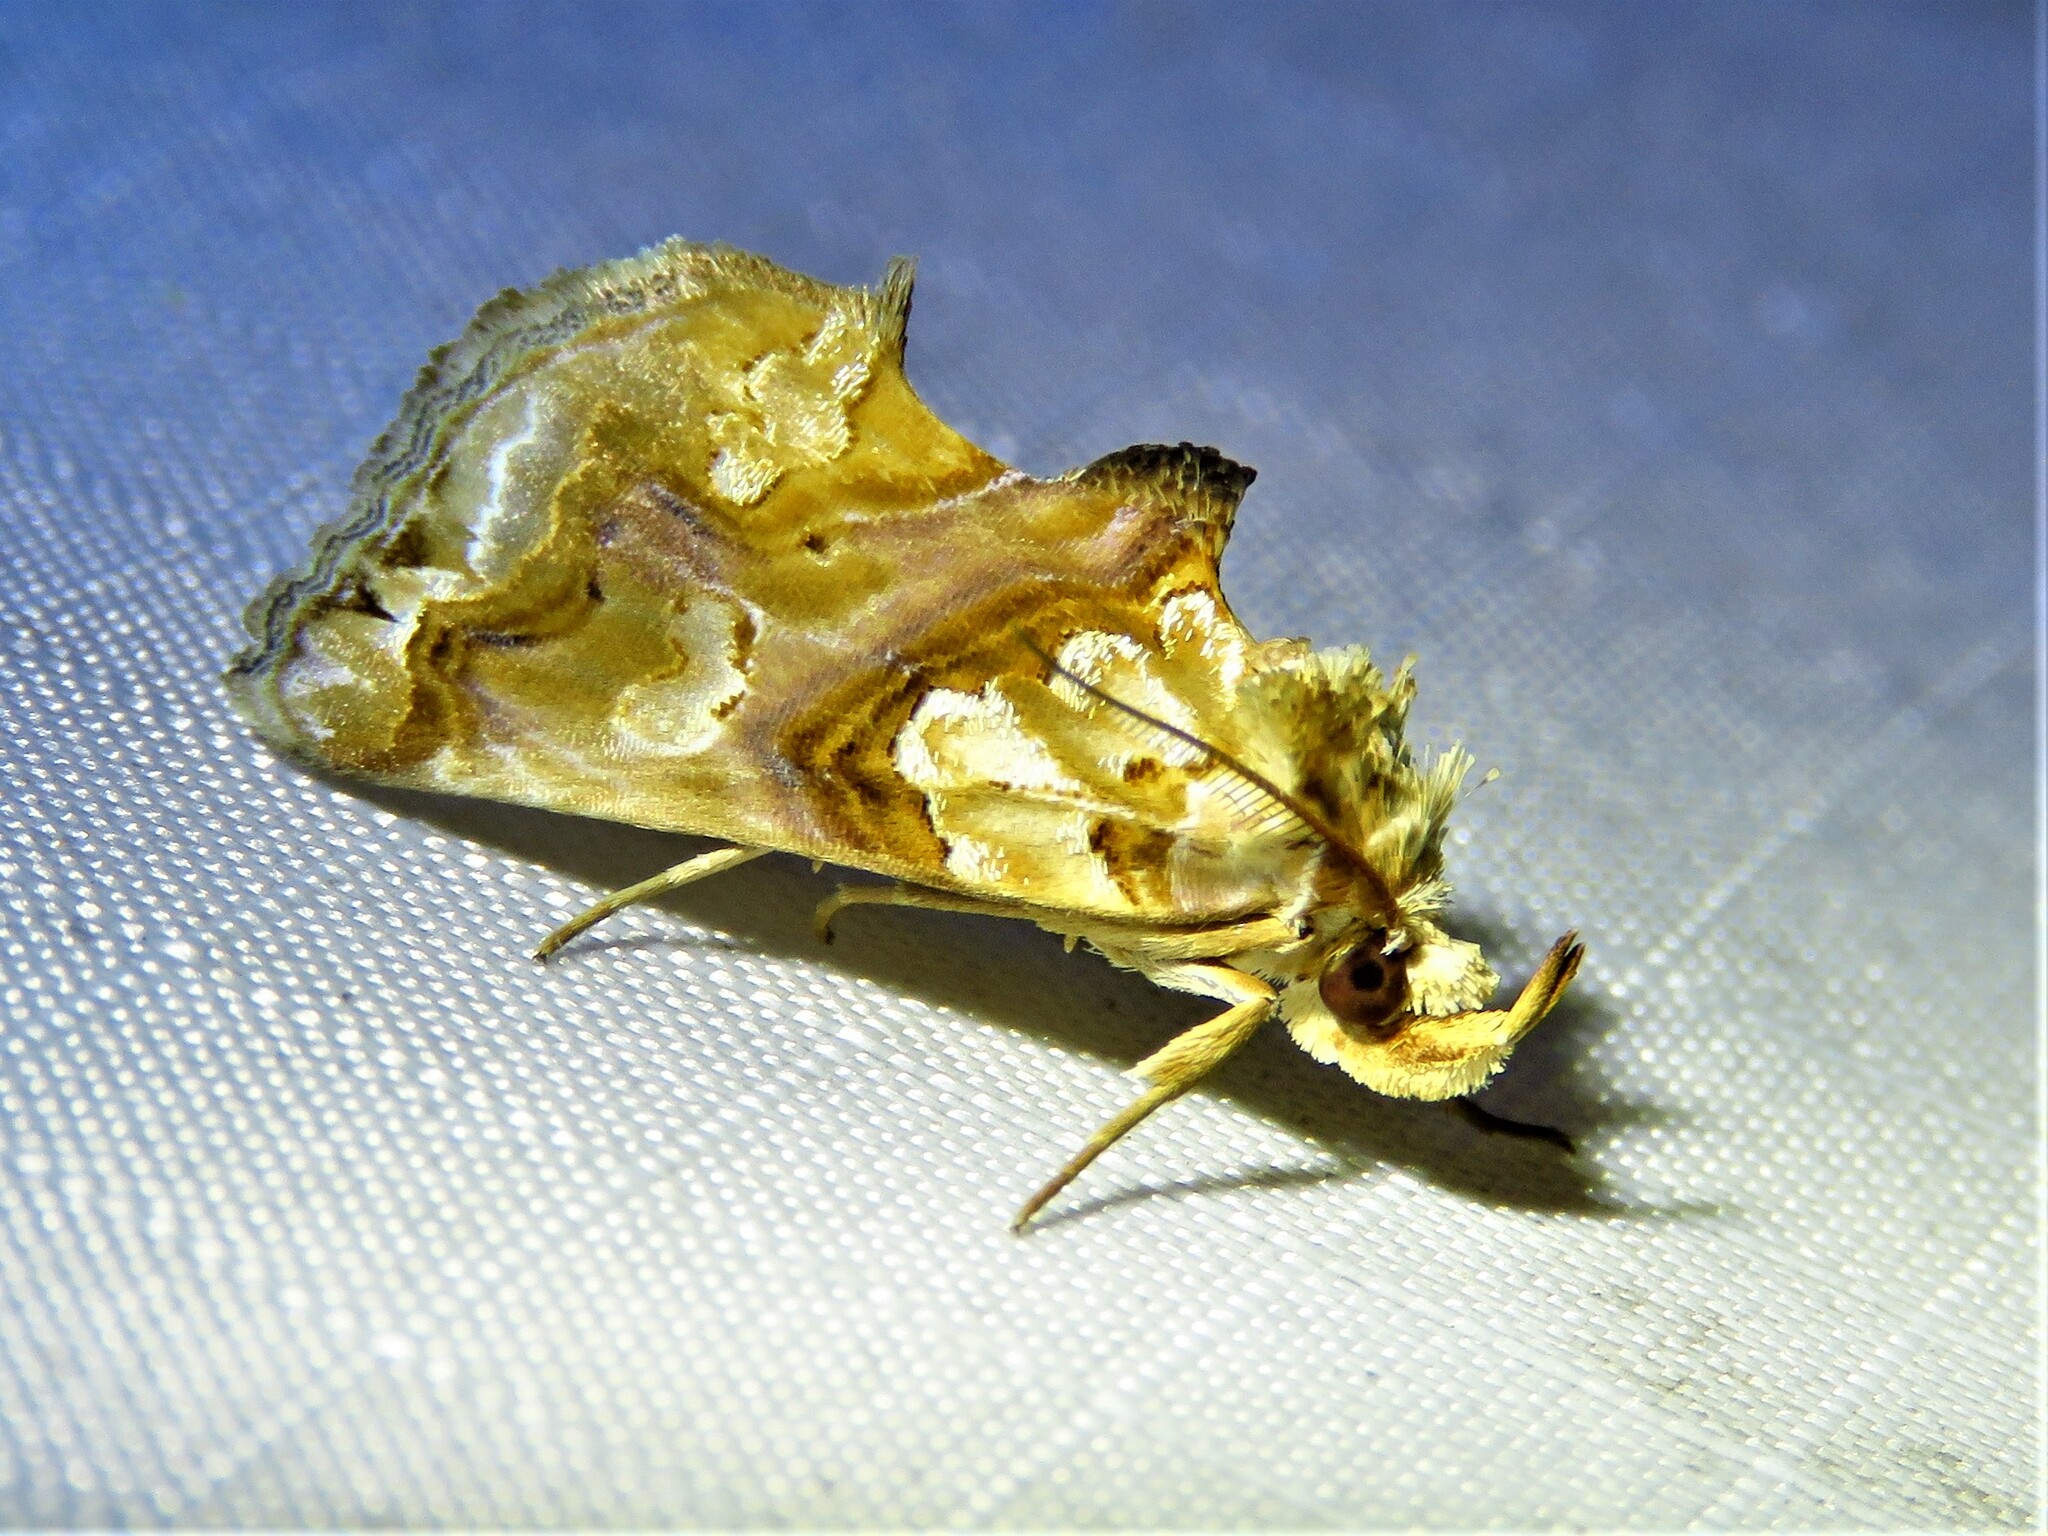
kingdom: Animalia
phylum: Arthropoda
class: Insecta
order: Lepidoptera
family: Erebidae
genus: Plusiodonta
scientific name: Plusiodonta compressipalpis
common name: Moonseed moth
